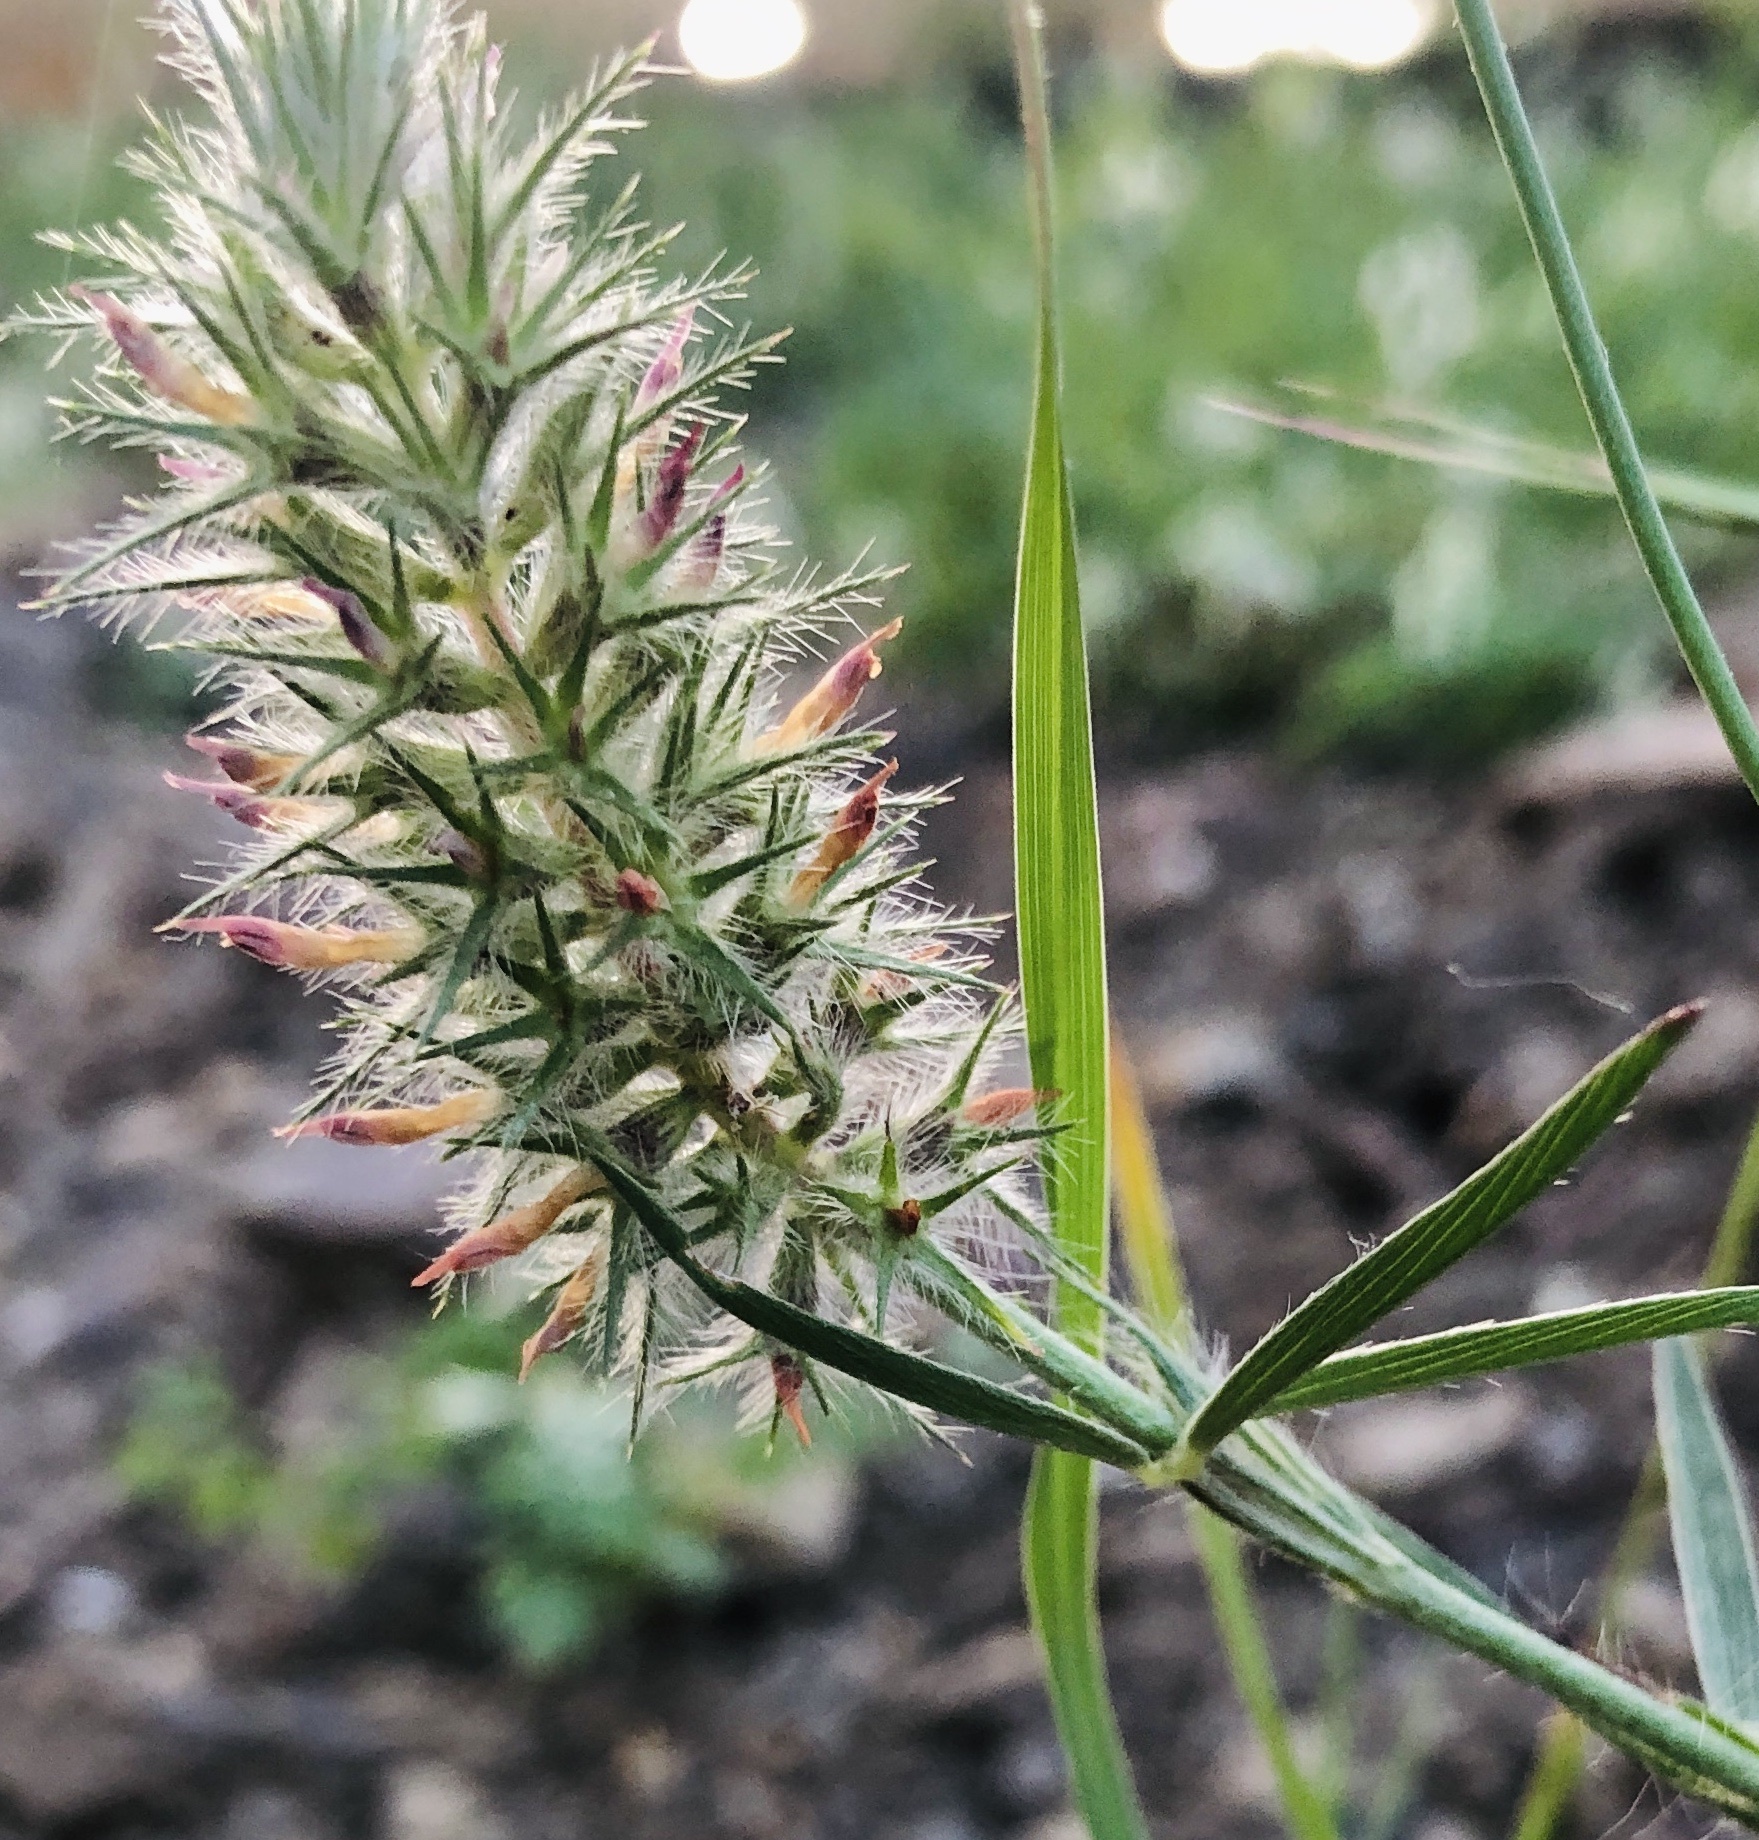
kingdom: Plantae
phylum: Tracheophyta
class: Magnoliopsida
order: Fabales
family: Fabaceae
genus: Trifolium
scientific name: Trifolium angustifolium
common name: Narrow clover
